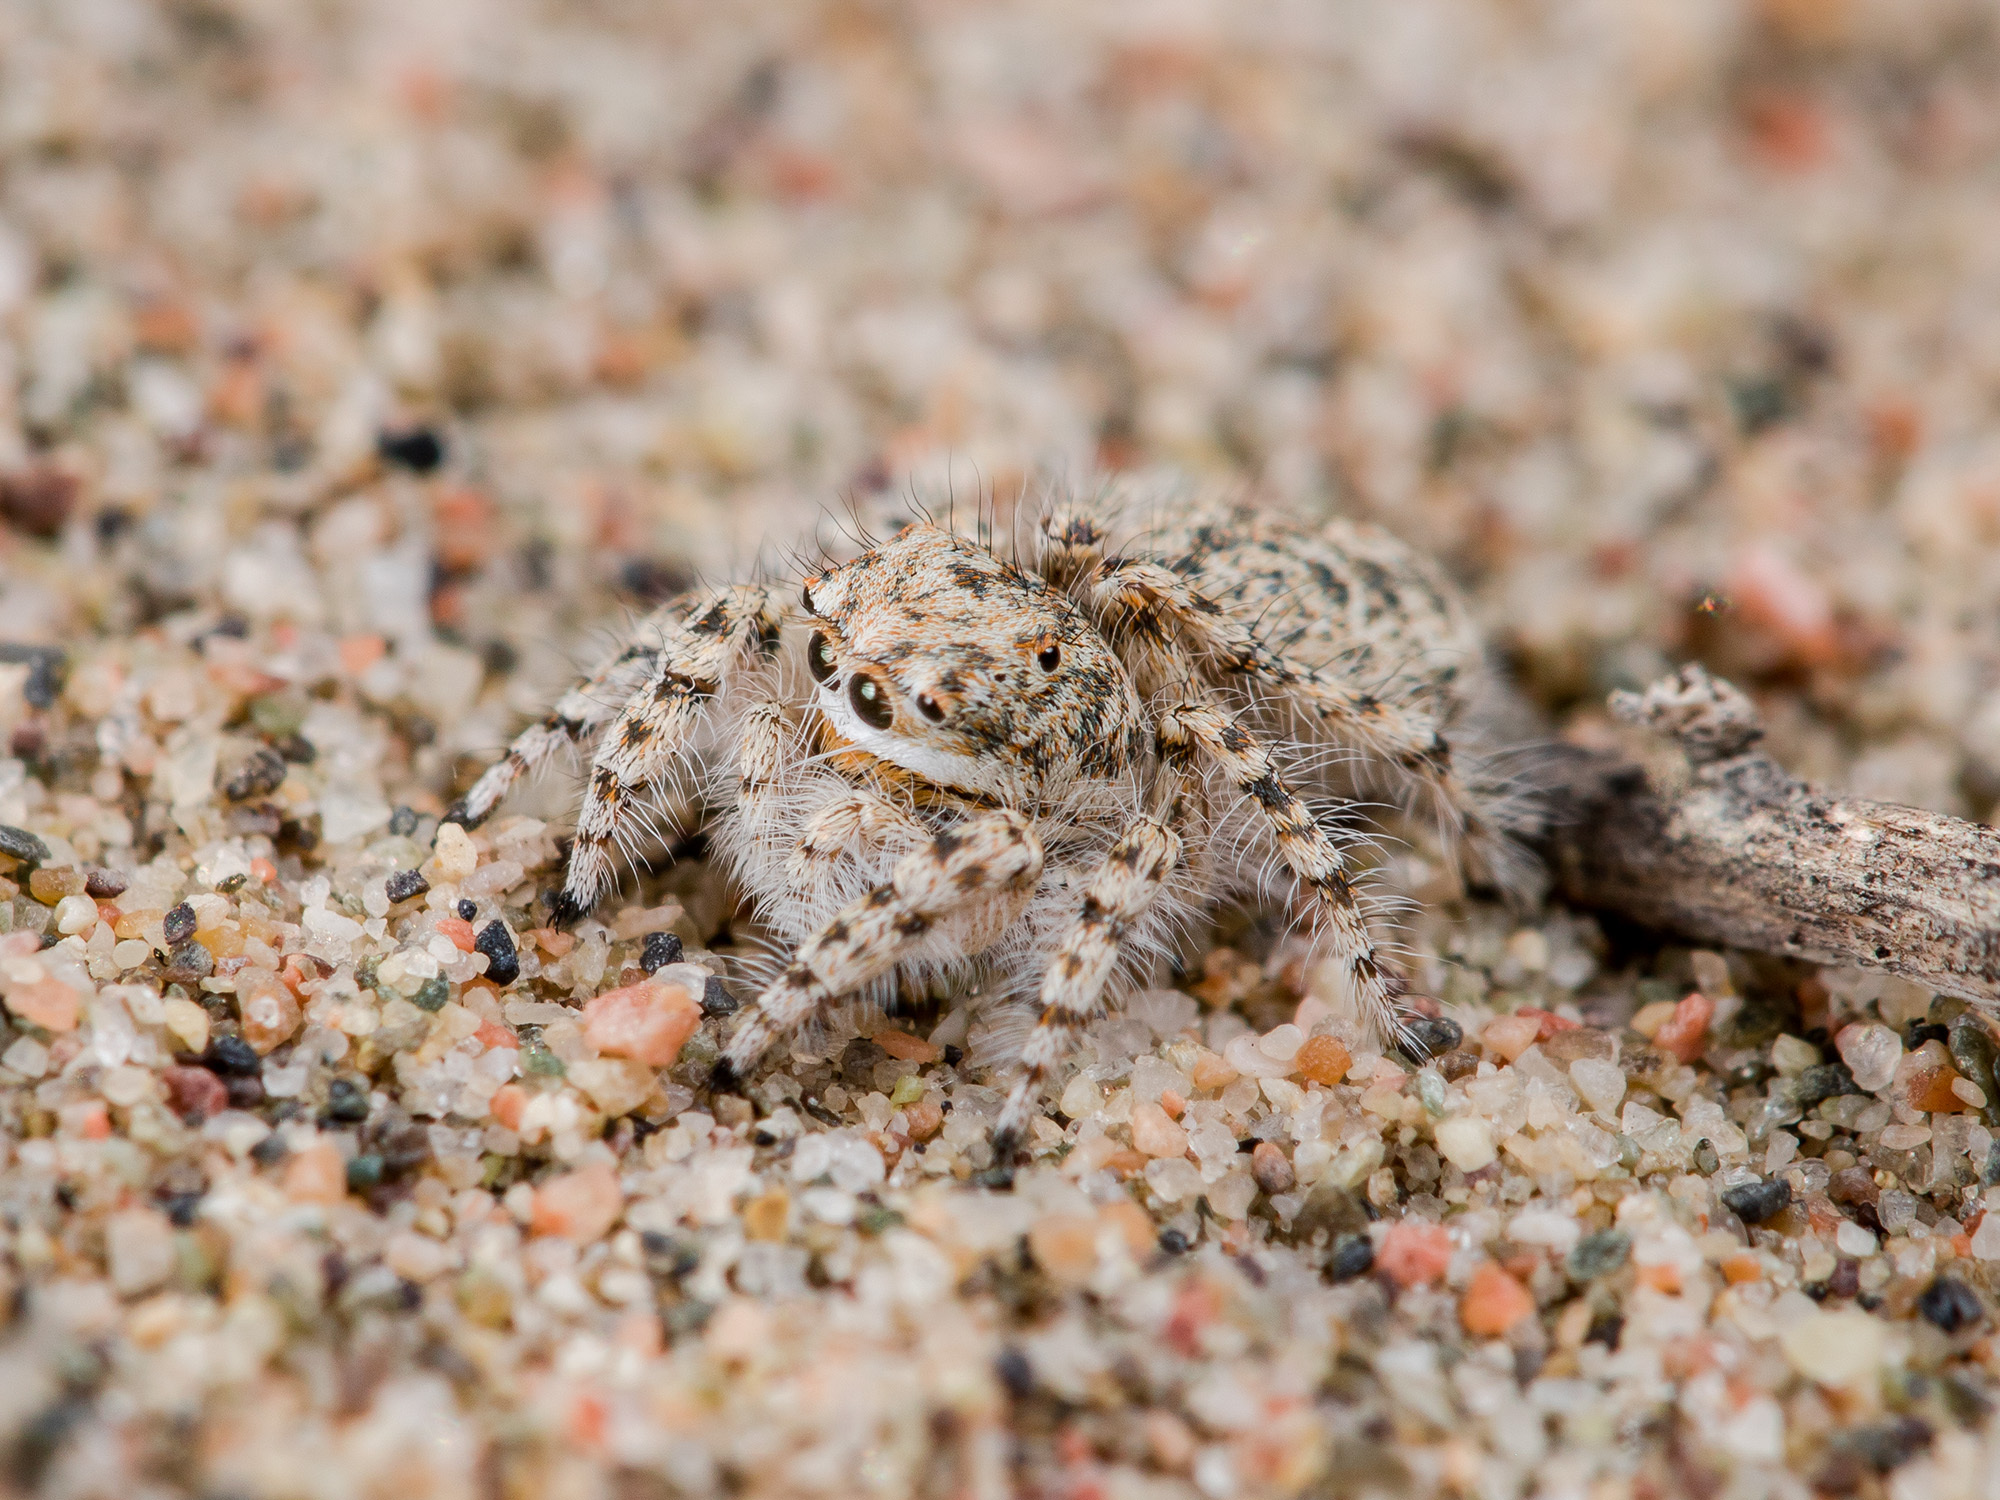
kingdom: Animalia
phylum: Arthropoda
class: Arachnida
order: Araneae
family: Salticidae
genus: Yllenus
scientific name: Yllenus uiguricus
